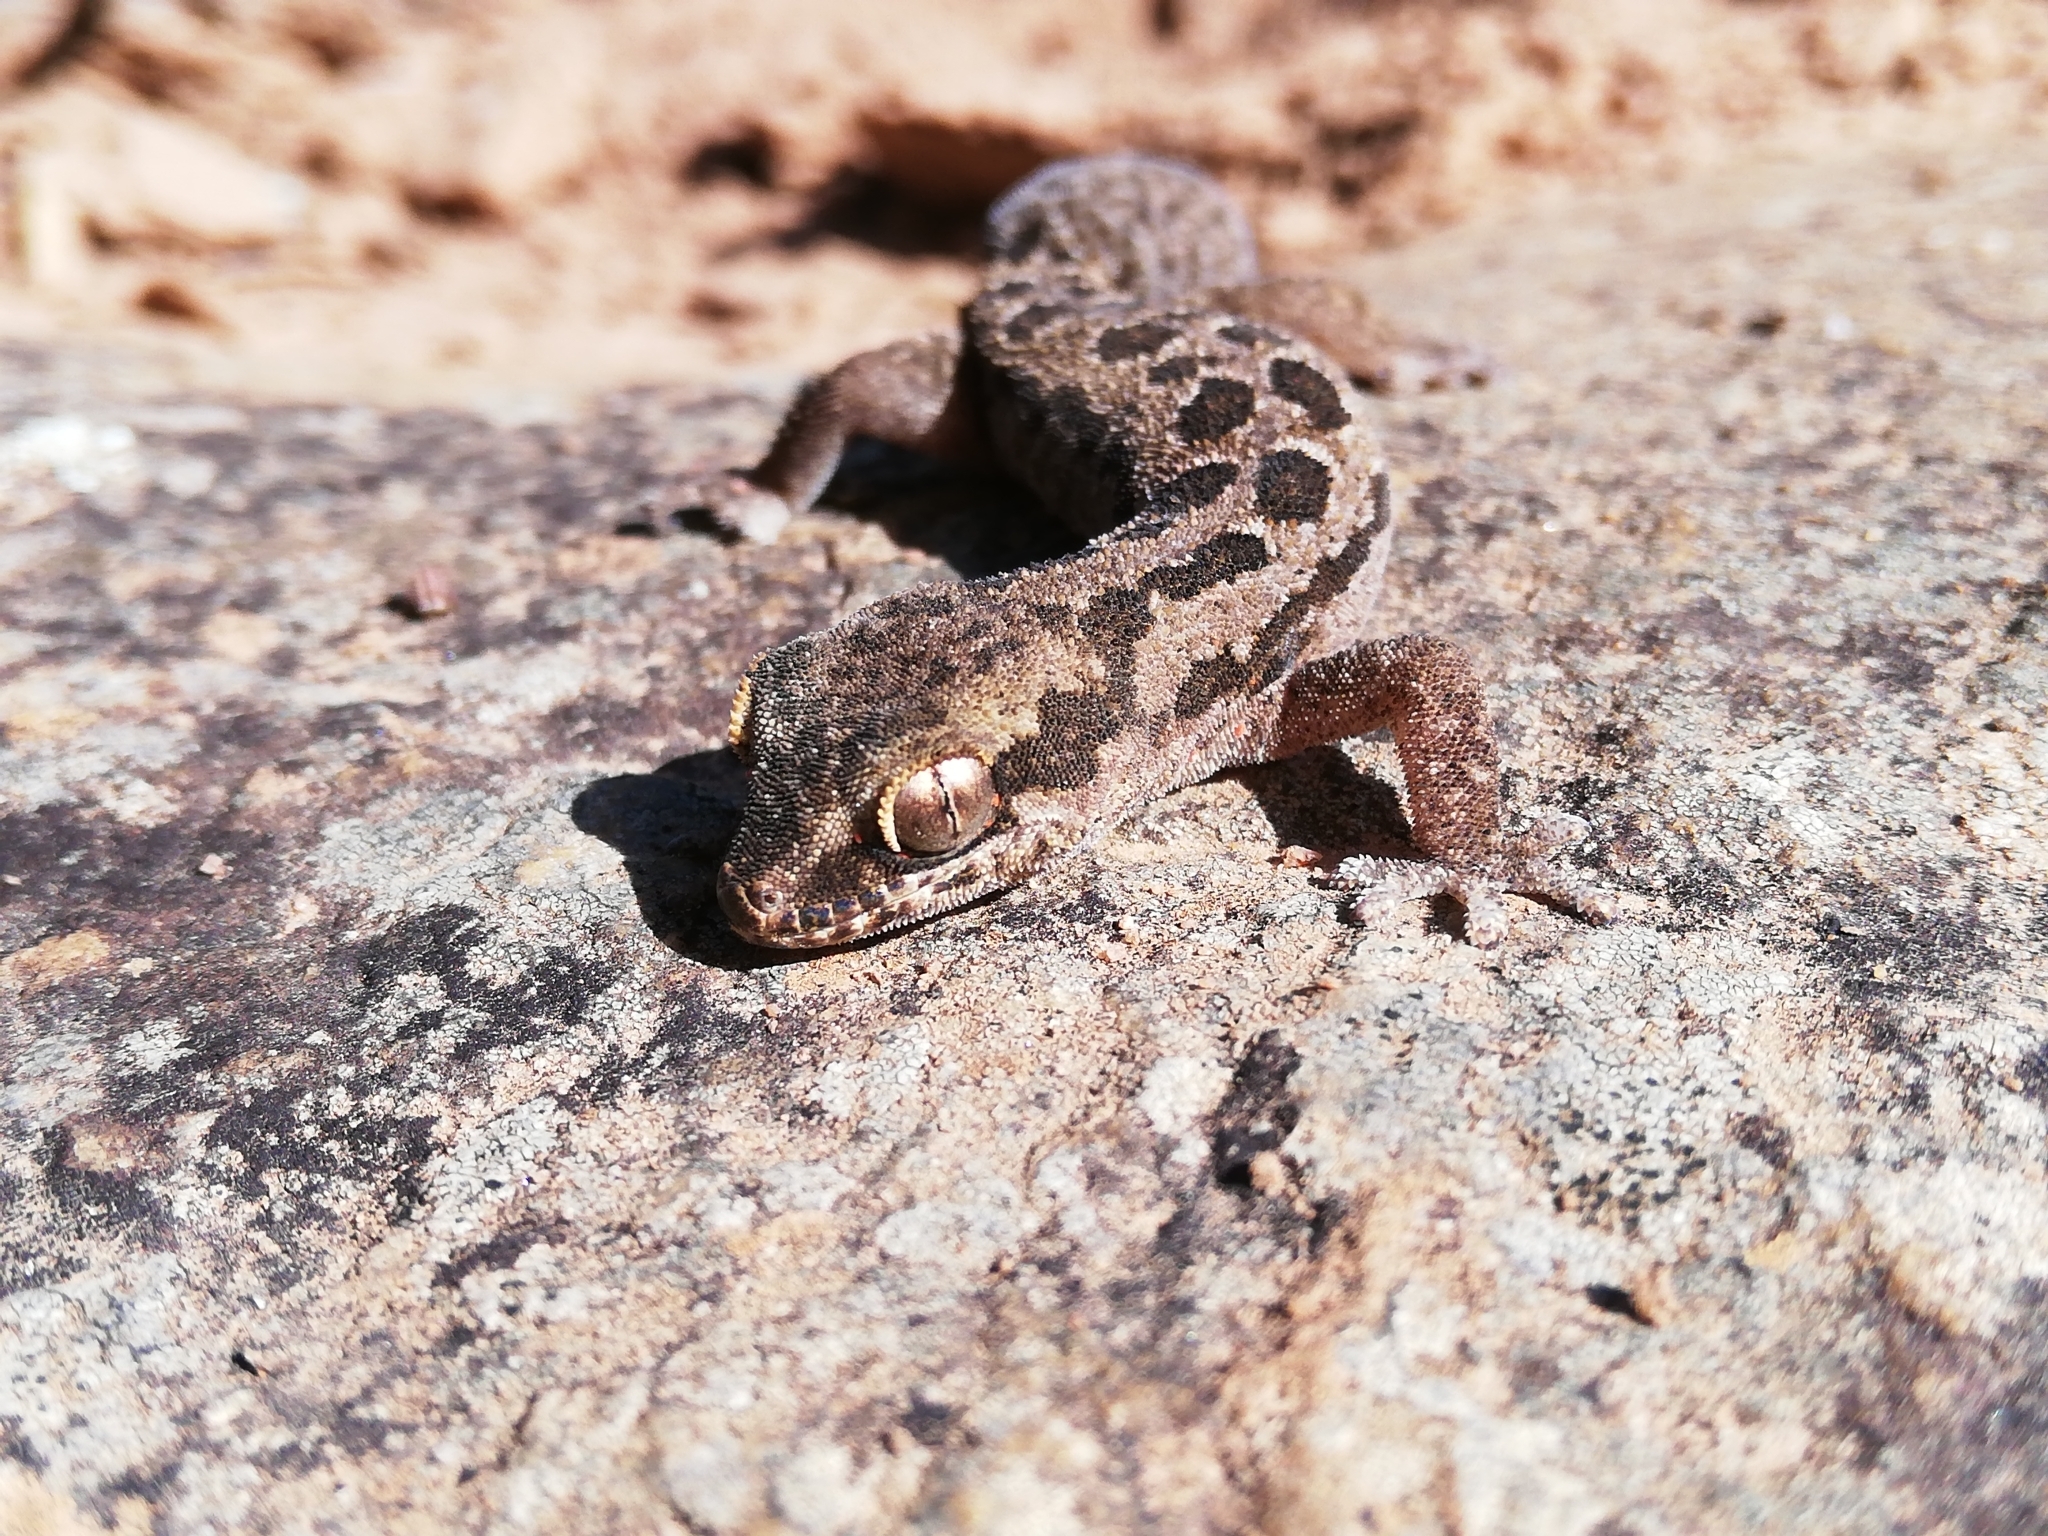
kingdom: Animalia
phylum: Chordata
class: Squamata
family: Gekkonidae
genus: Pachydactylus
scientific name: Pachydactylus maculatus
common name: Spotted thick-toed gecko
